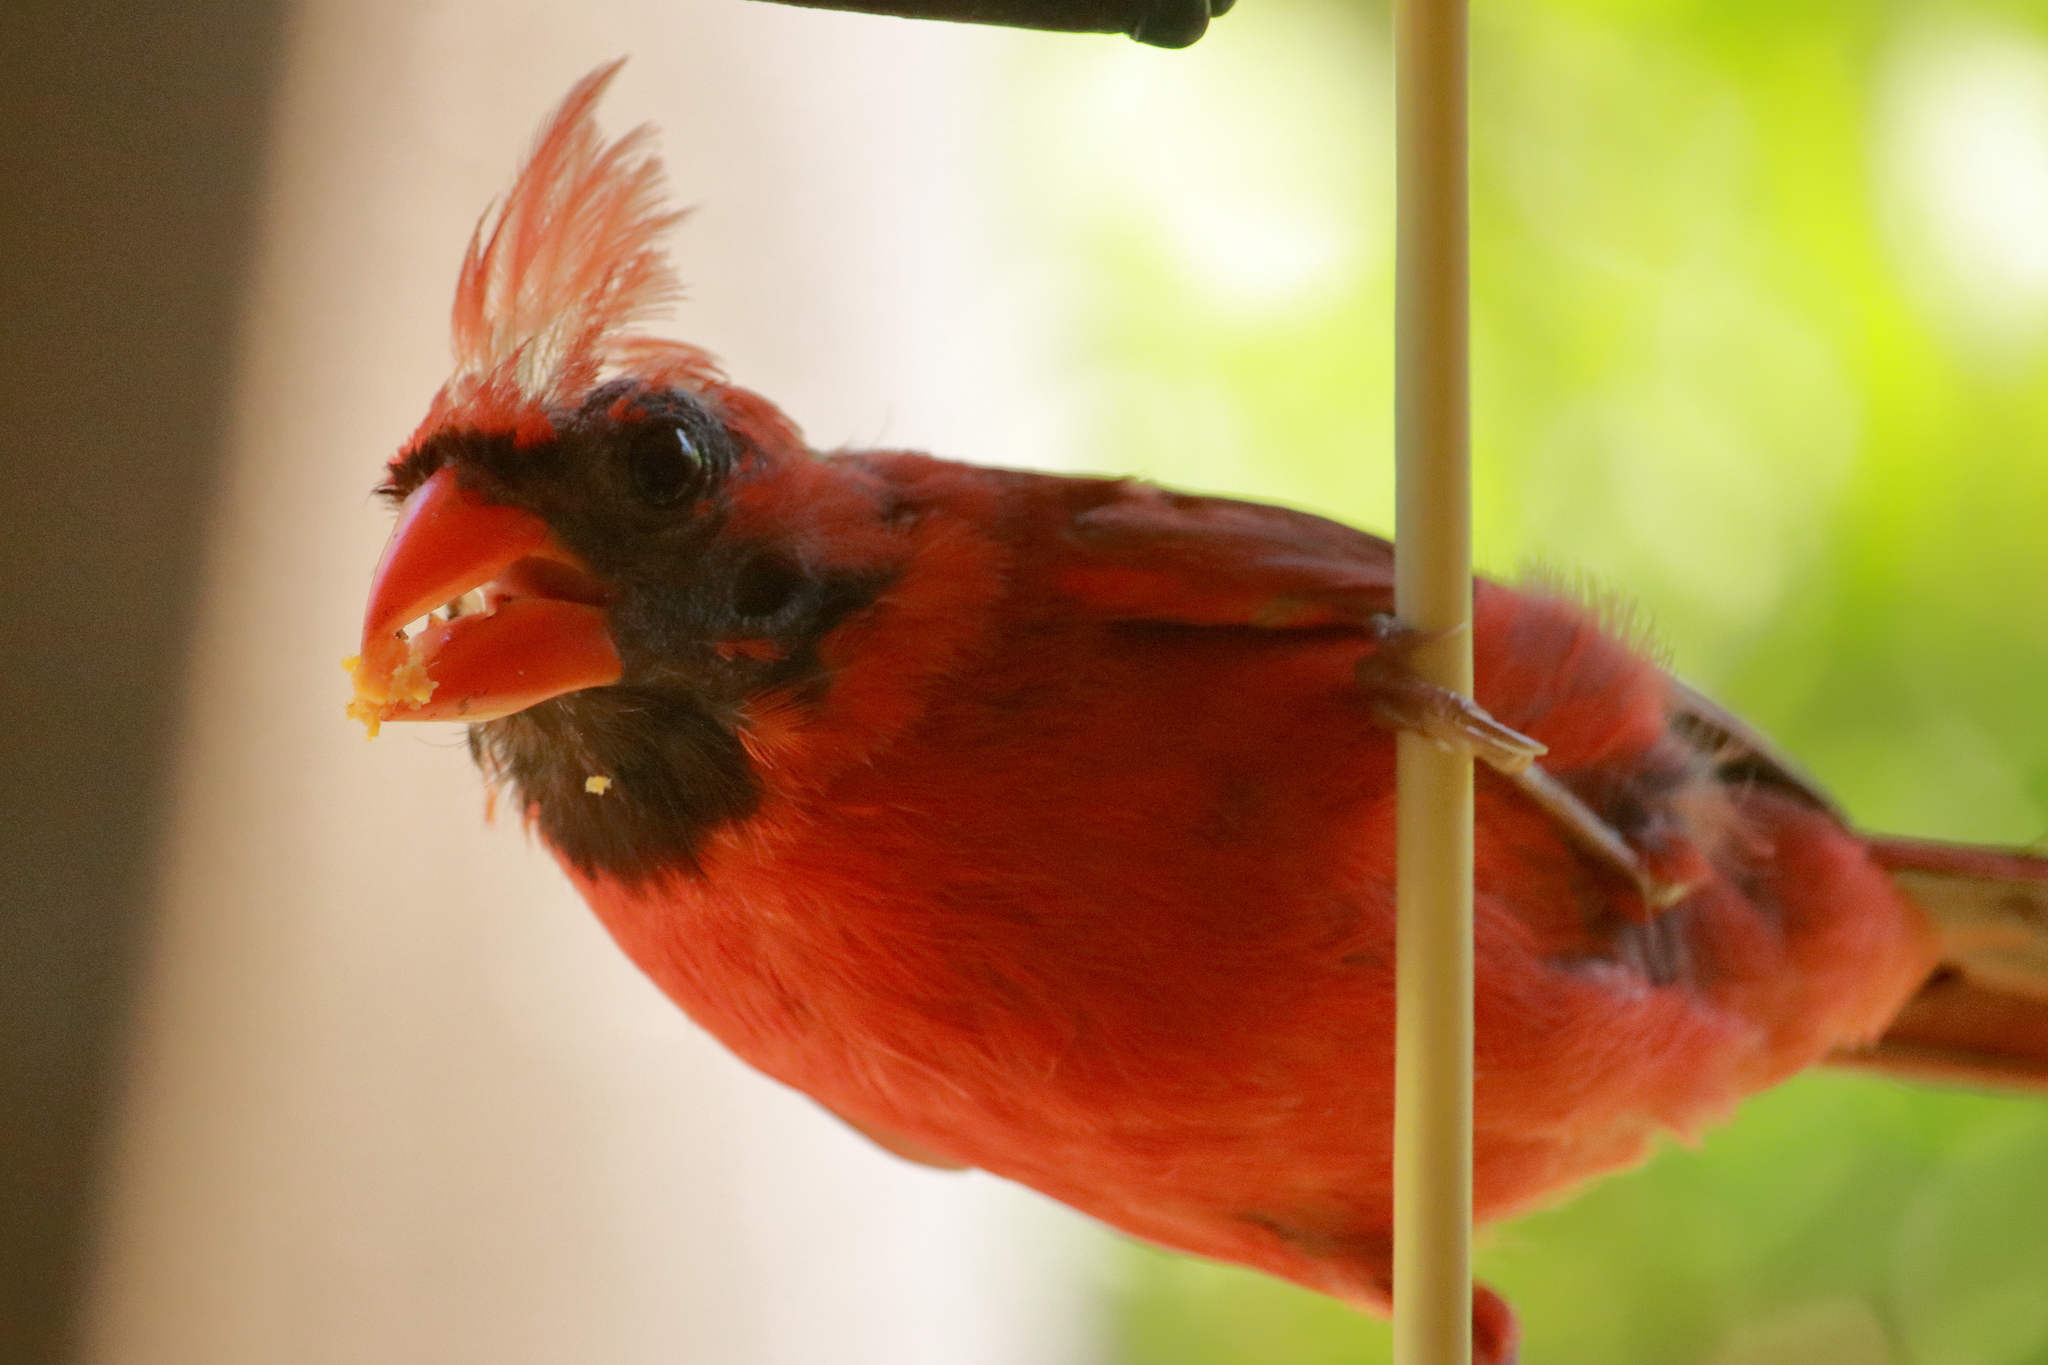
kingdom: Animalia
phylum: Chordata
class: Aves
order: Passeriformes
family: Cardinalidae
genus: Cardinalis
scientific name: Cardinalis cardinalis
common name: Northern cardinal
